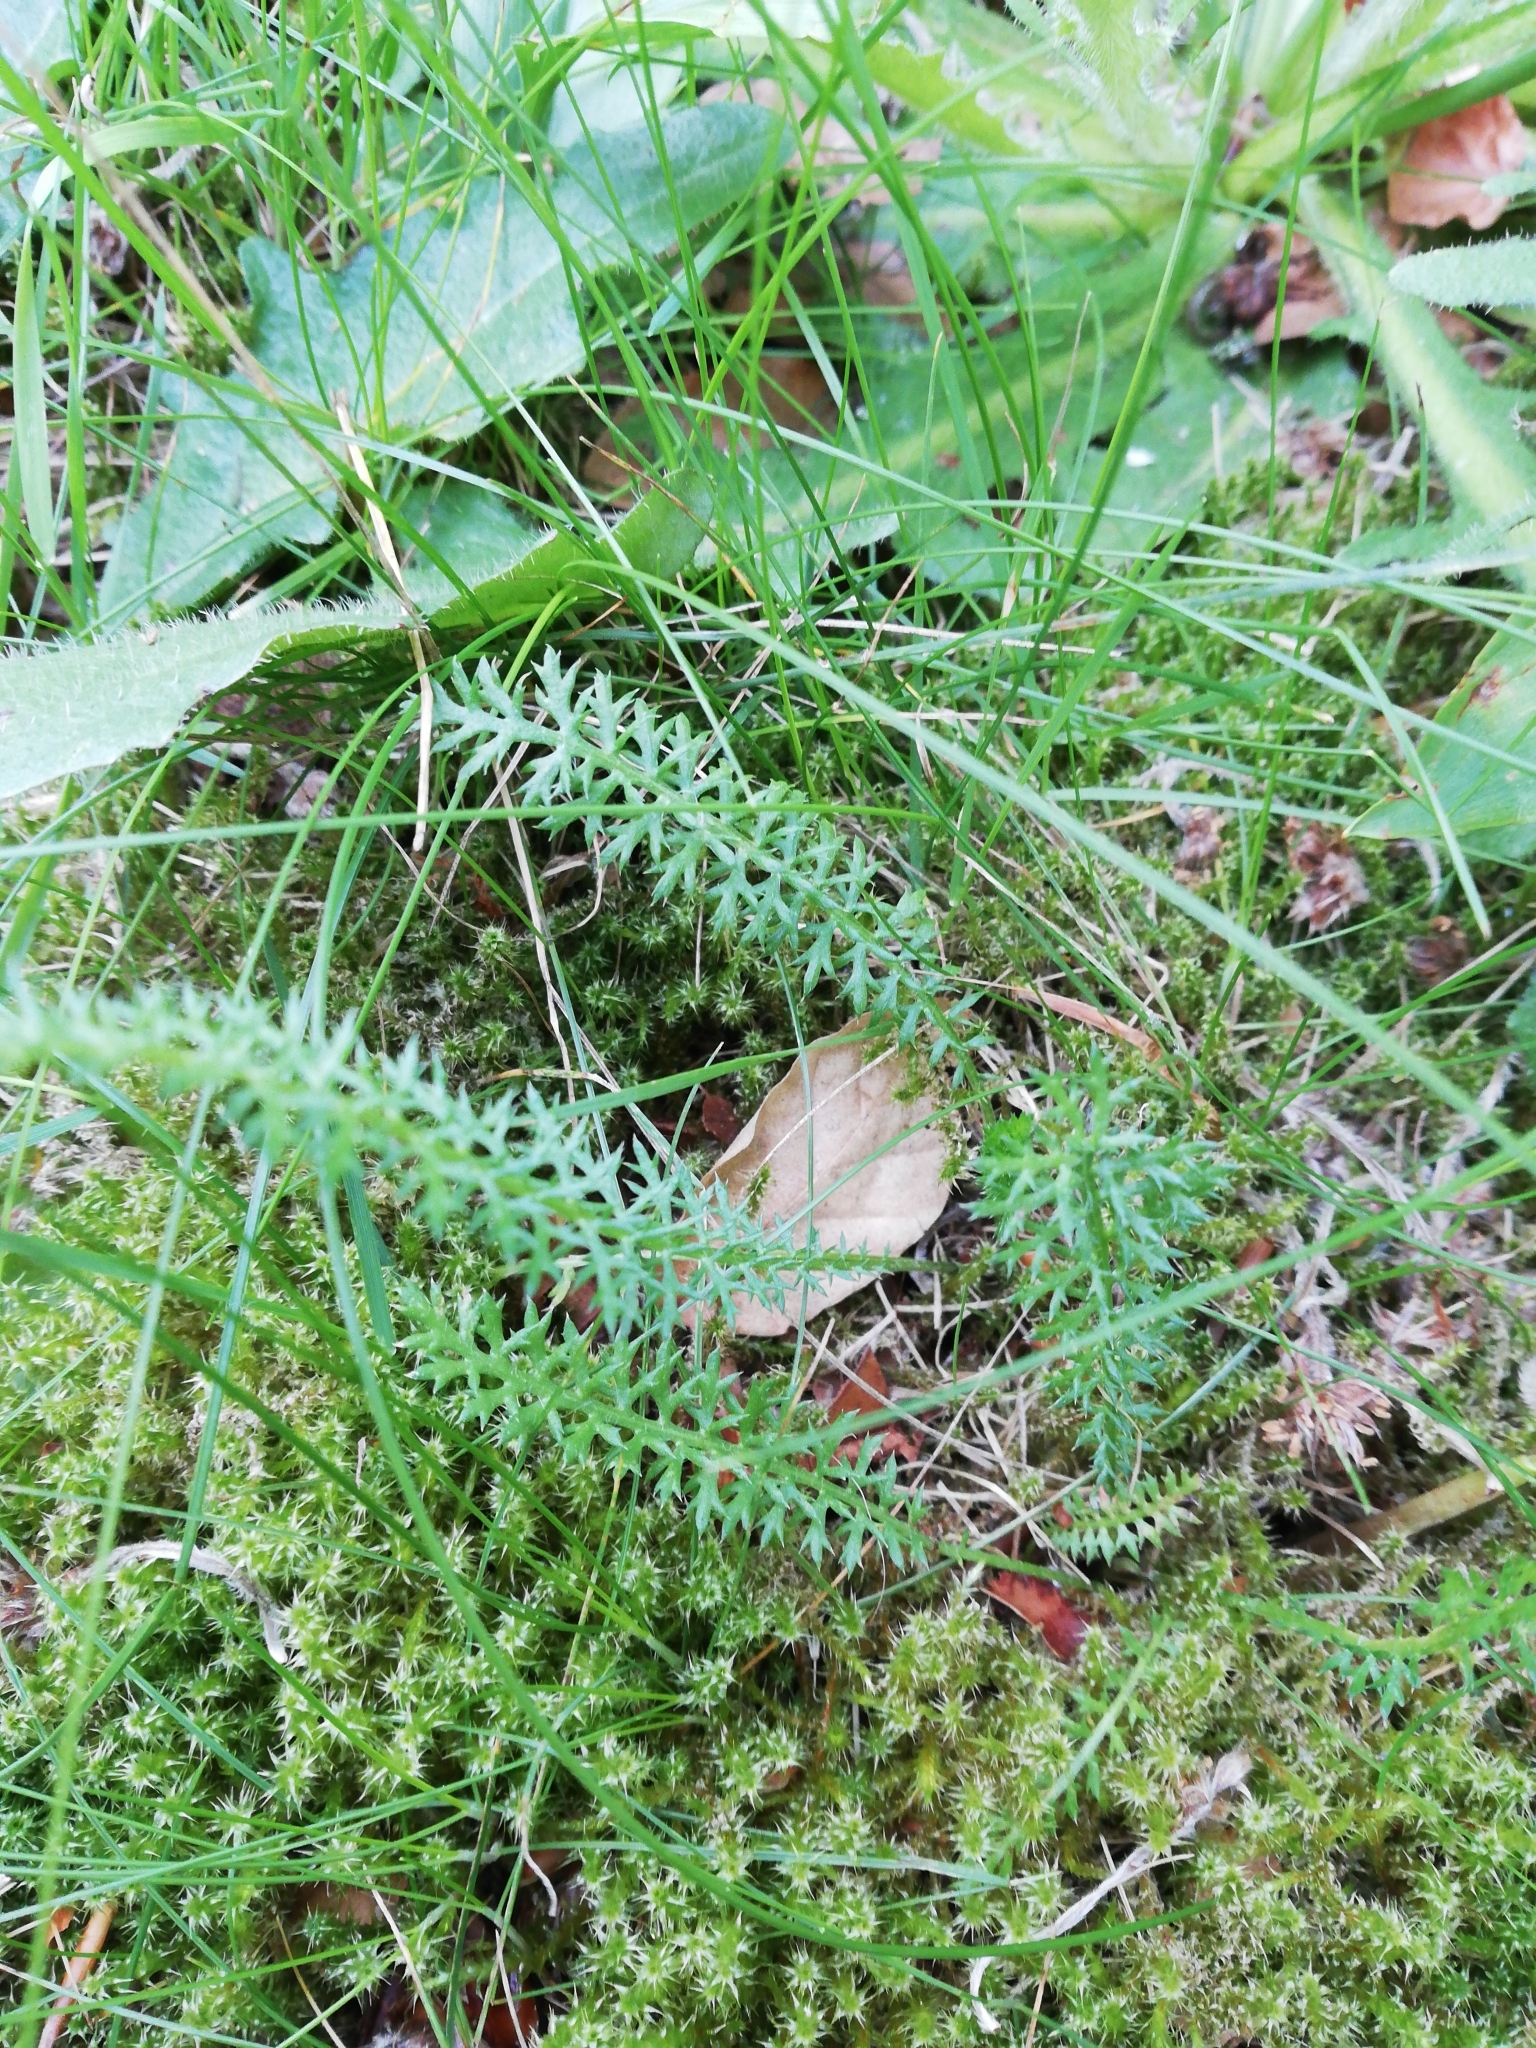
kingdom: Plantae
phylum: Tracheophyta
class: Magnoliopsida
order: Asterales
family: Asteraceae
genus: Achillea
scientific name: Achillea millefolium
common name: Yarrow
